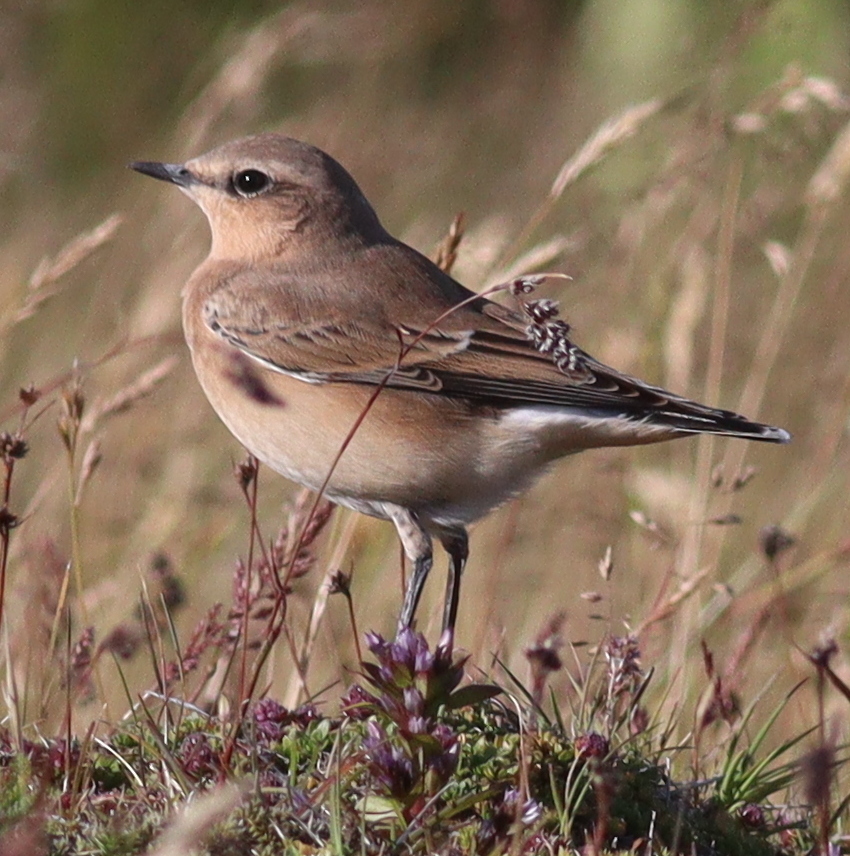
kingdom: Animalia
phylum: Chordata
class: Aves
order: Passeriformes
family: Muscicapidae
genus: Oenanthe
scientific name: Oenanthe oenanthe
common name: Northern wheatear
